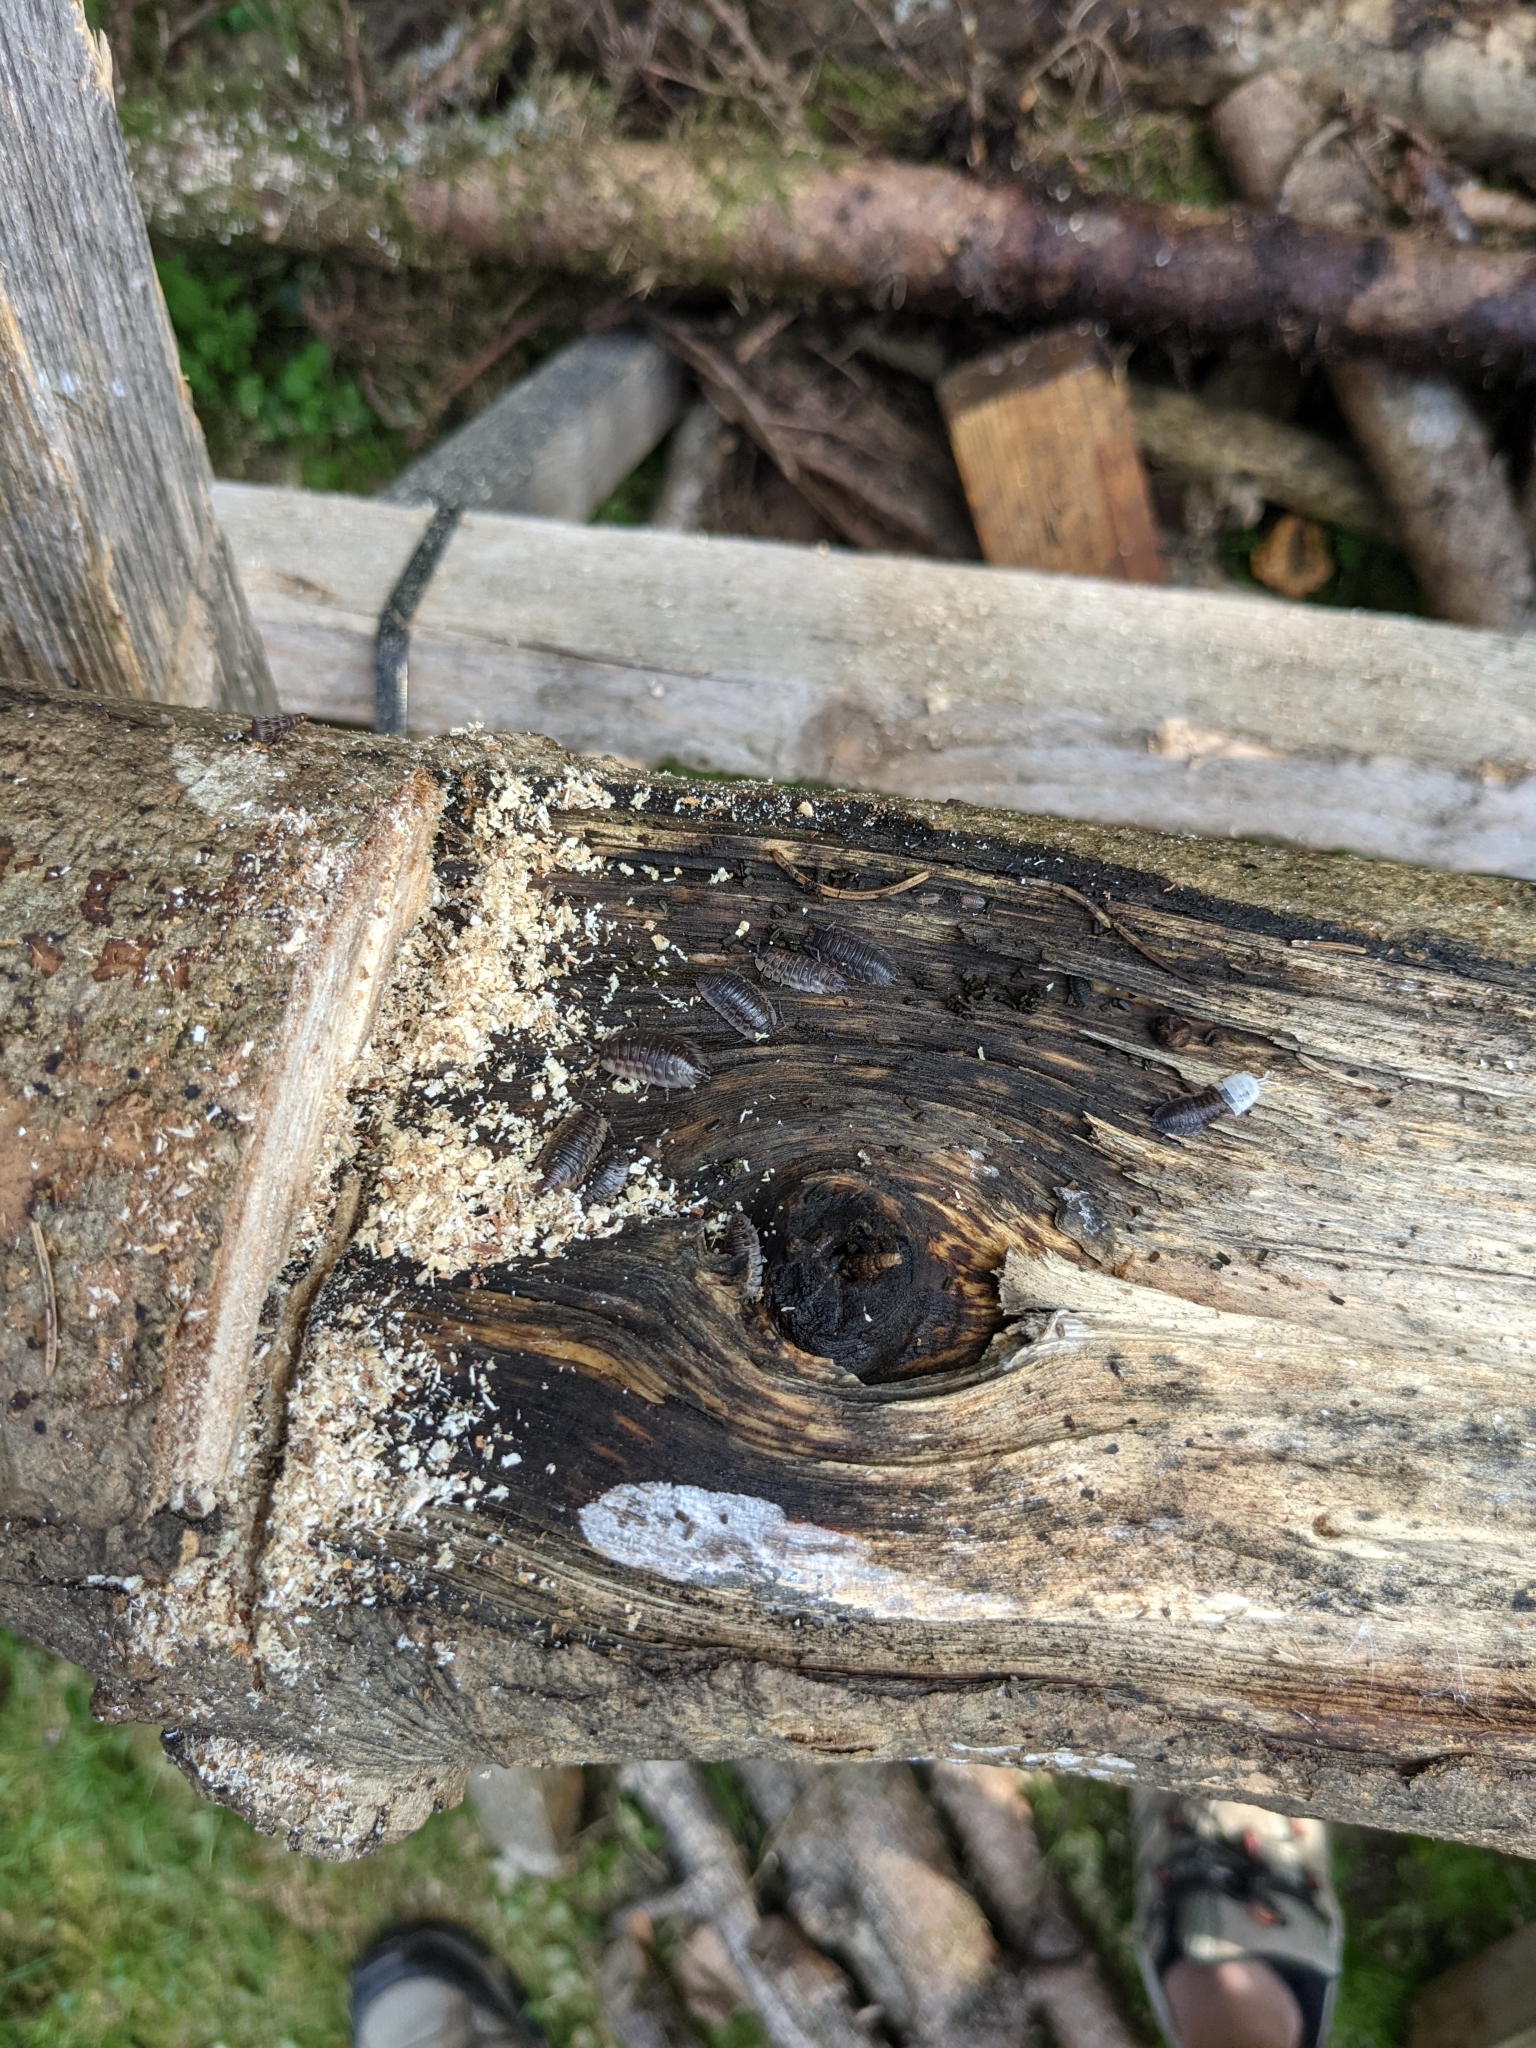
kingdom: Animalia
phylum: Arthropoda
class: Malacostraca
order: Isopoda
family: Oniscidae
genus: Oniscus
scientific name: Oniscus asellus
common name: Common shiny woodlouse
